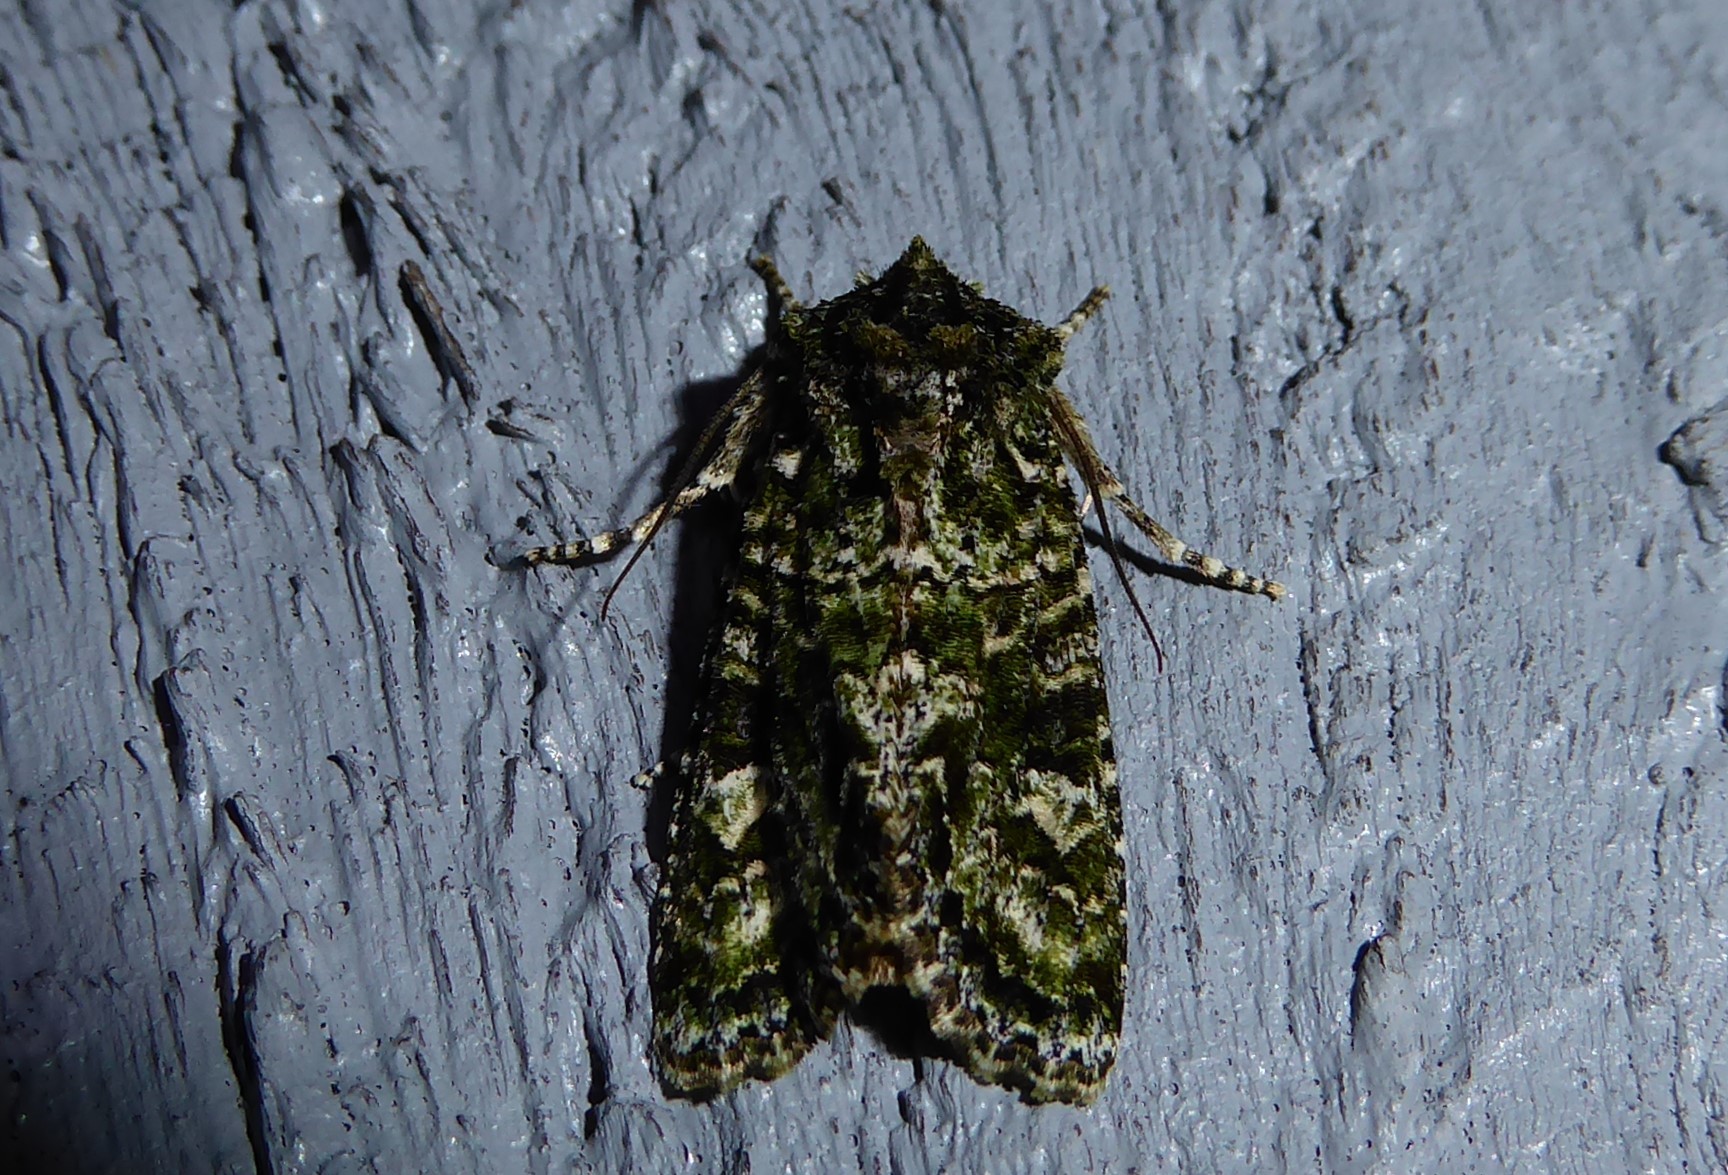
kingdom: Animalia
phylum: Arthropoda
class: Insecta
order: Lepidoptera
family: Noctuidae
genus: Ichneutica
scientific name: Ichneutica
